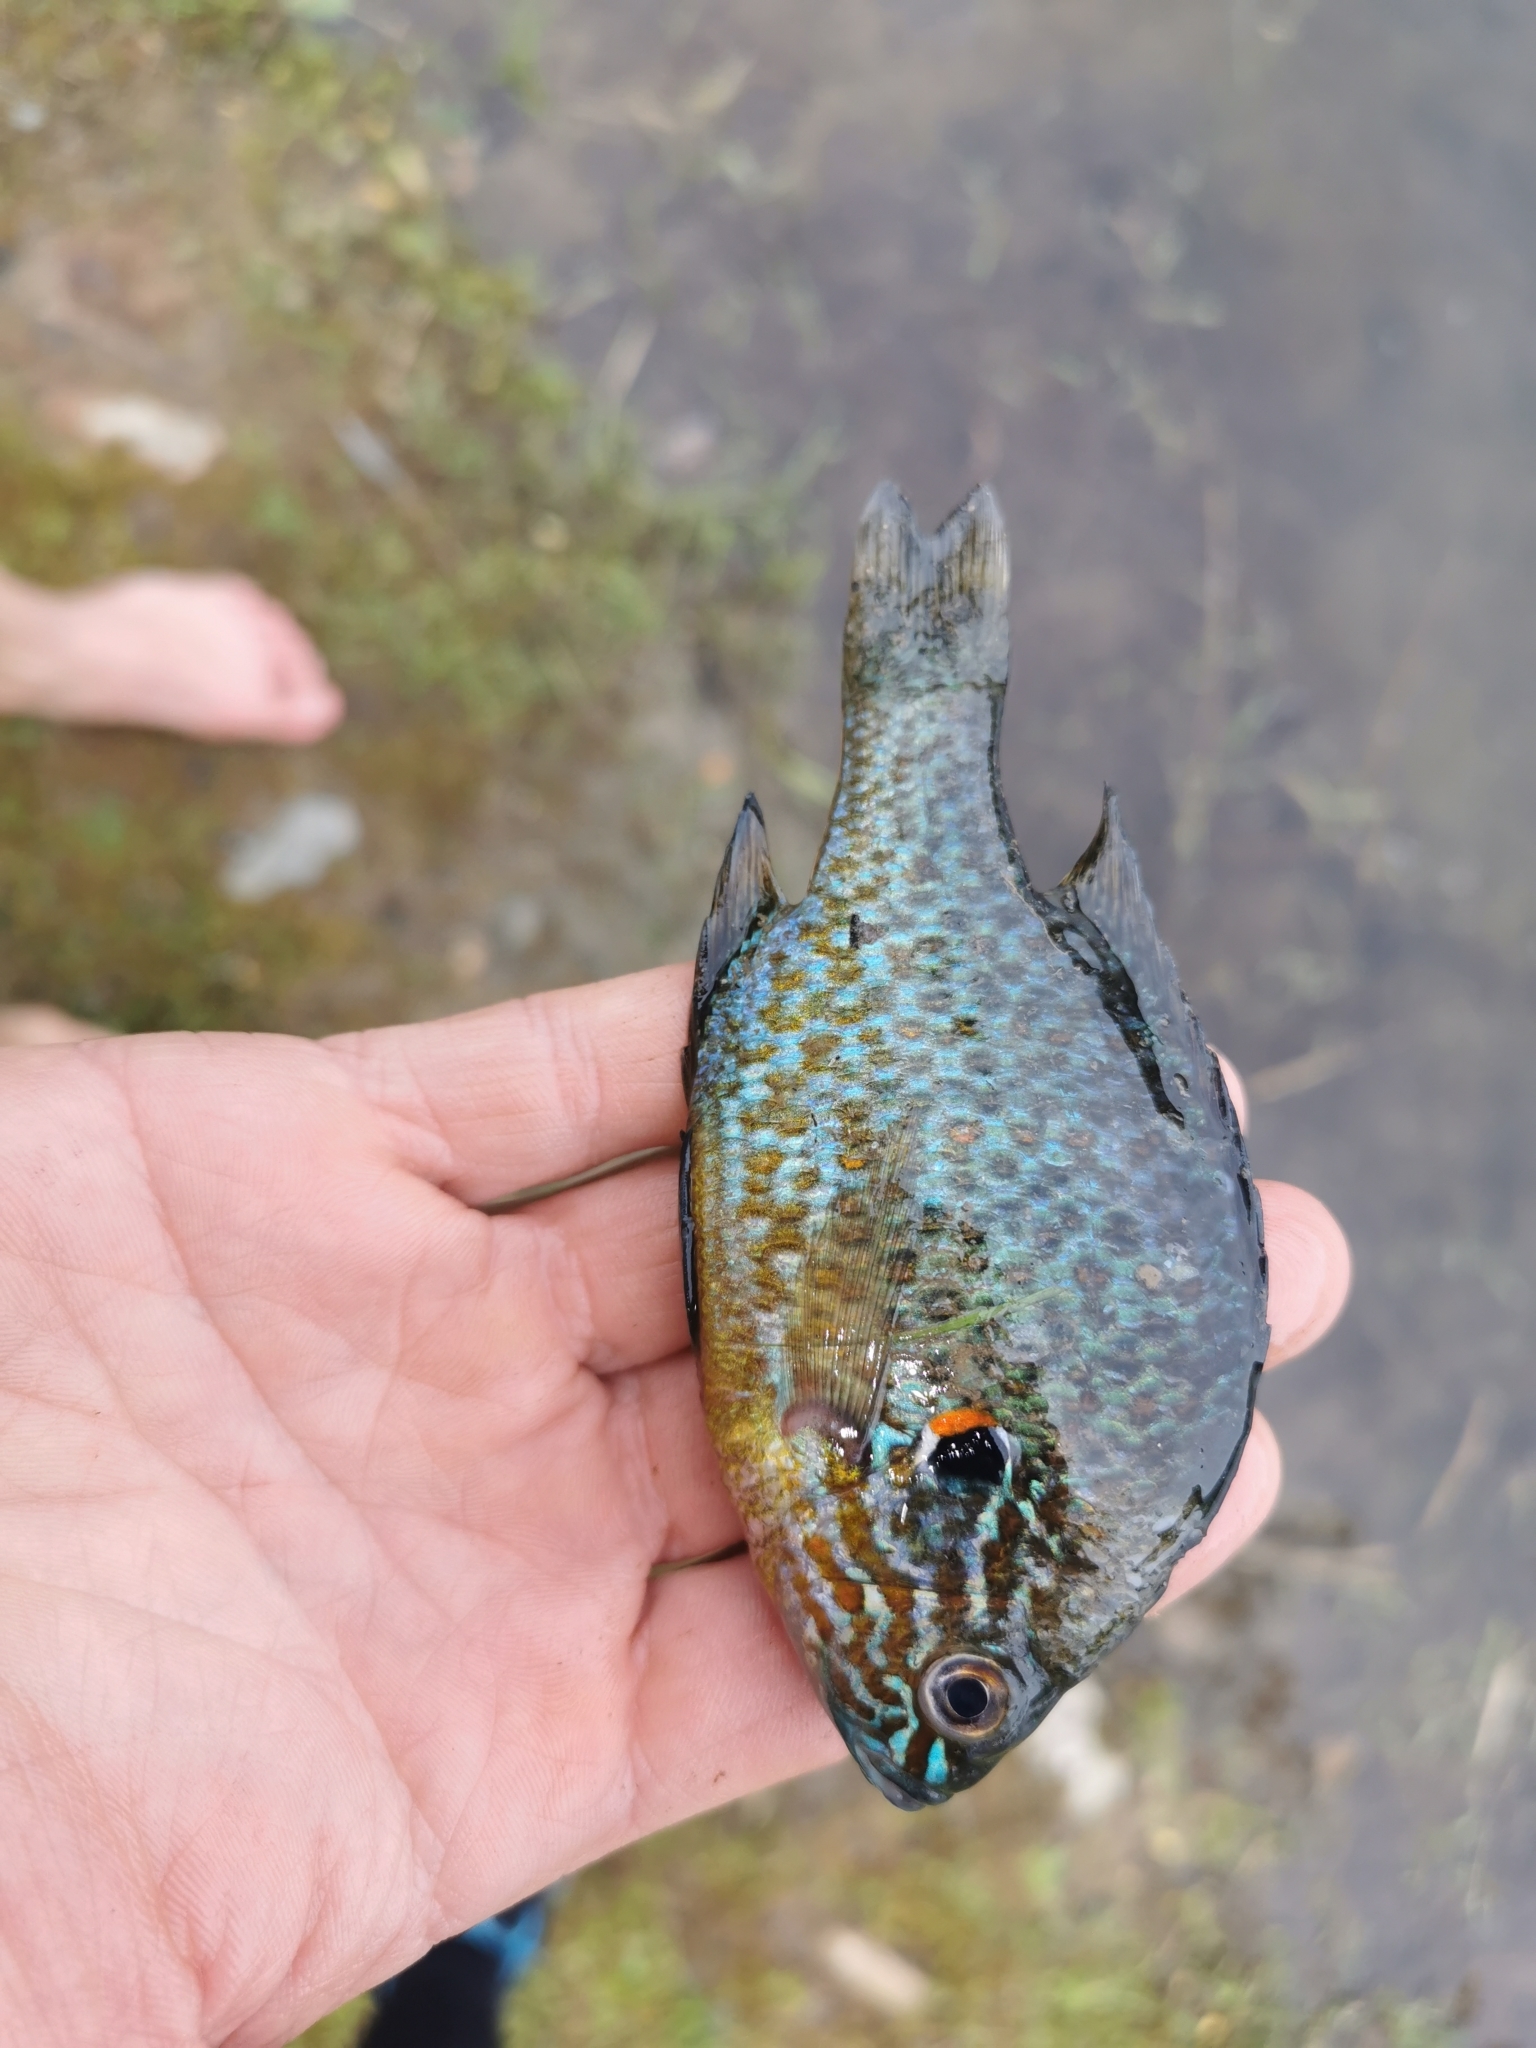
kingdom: Animalia
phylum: Chordata
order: Perciformes
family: Centrarchidae
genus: Lepomis
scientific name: Lepomis gibbosus
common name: Pumpkinseed
